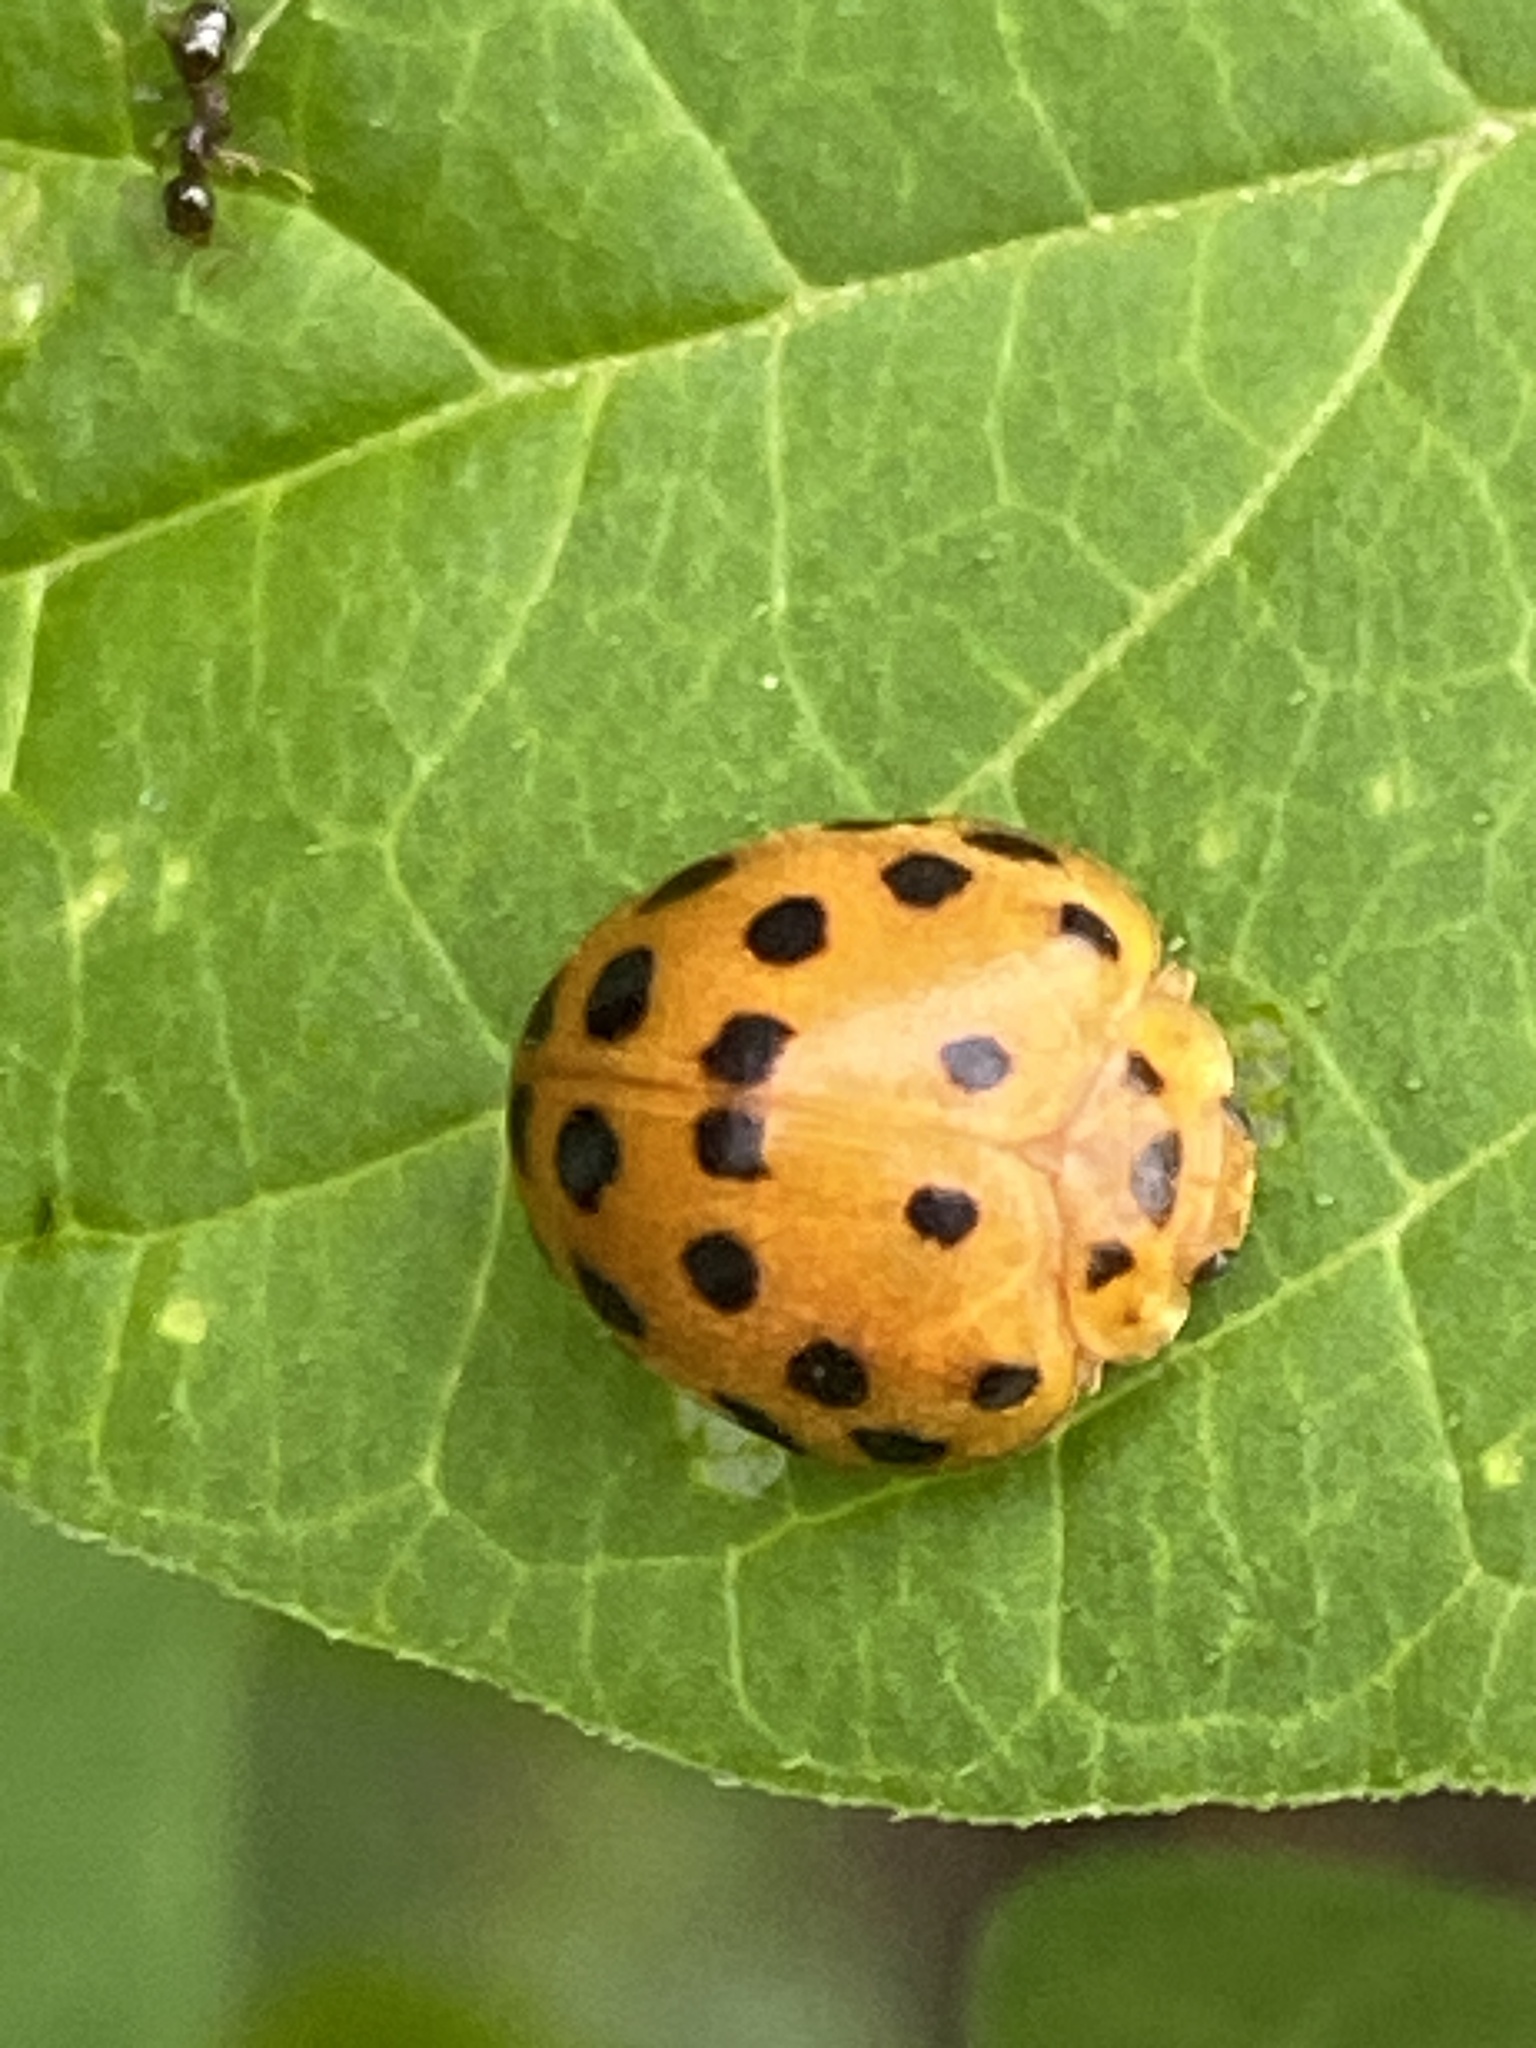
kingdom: Animalia
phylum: Arthropoda
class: Insecta
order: Coleoptera
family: Coccinellidae
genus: Henosepilachna
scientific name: Henosepilachna vigintioctopunctata
